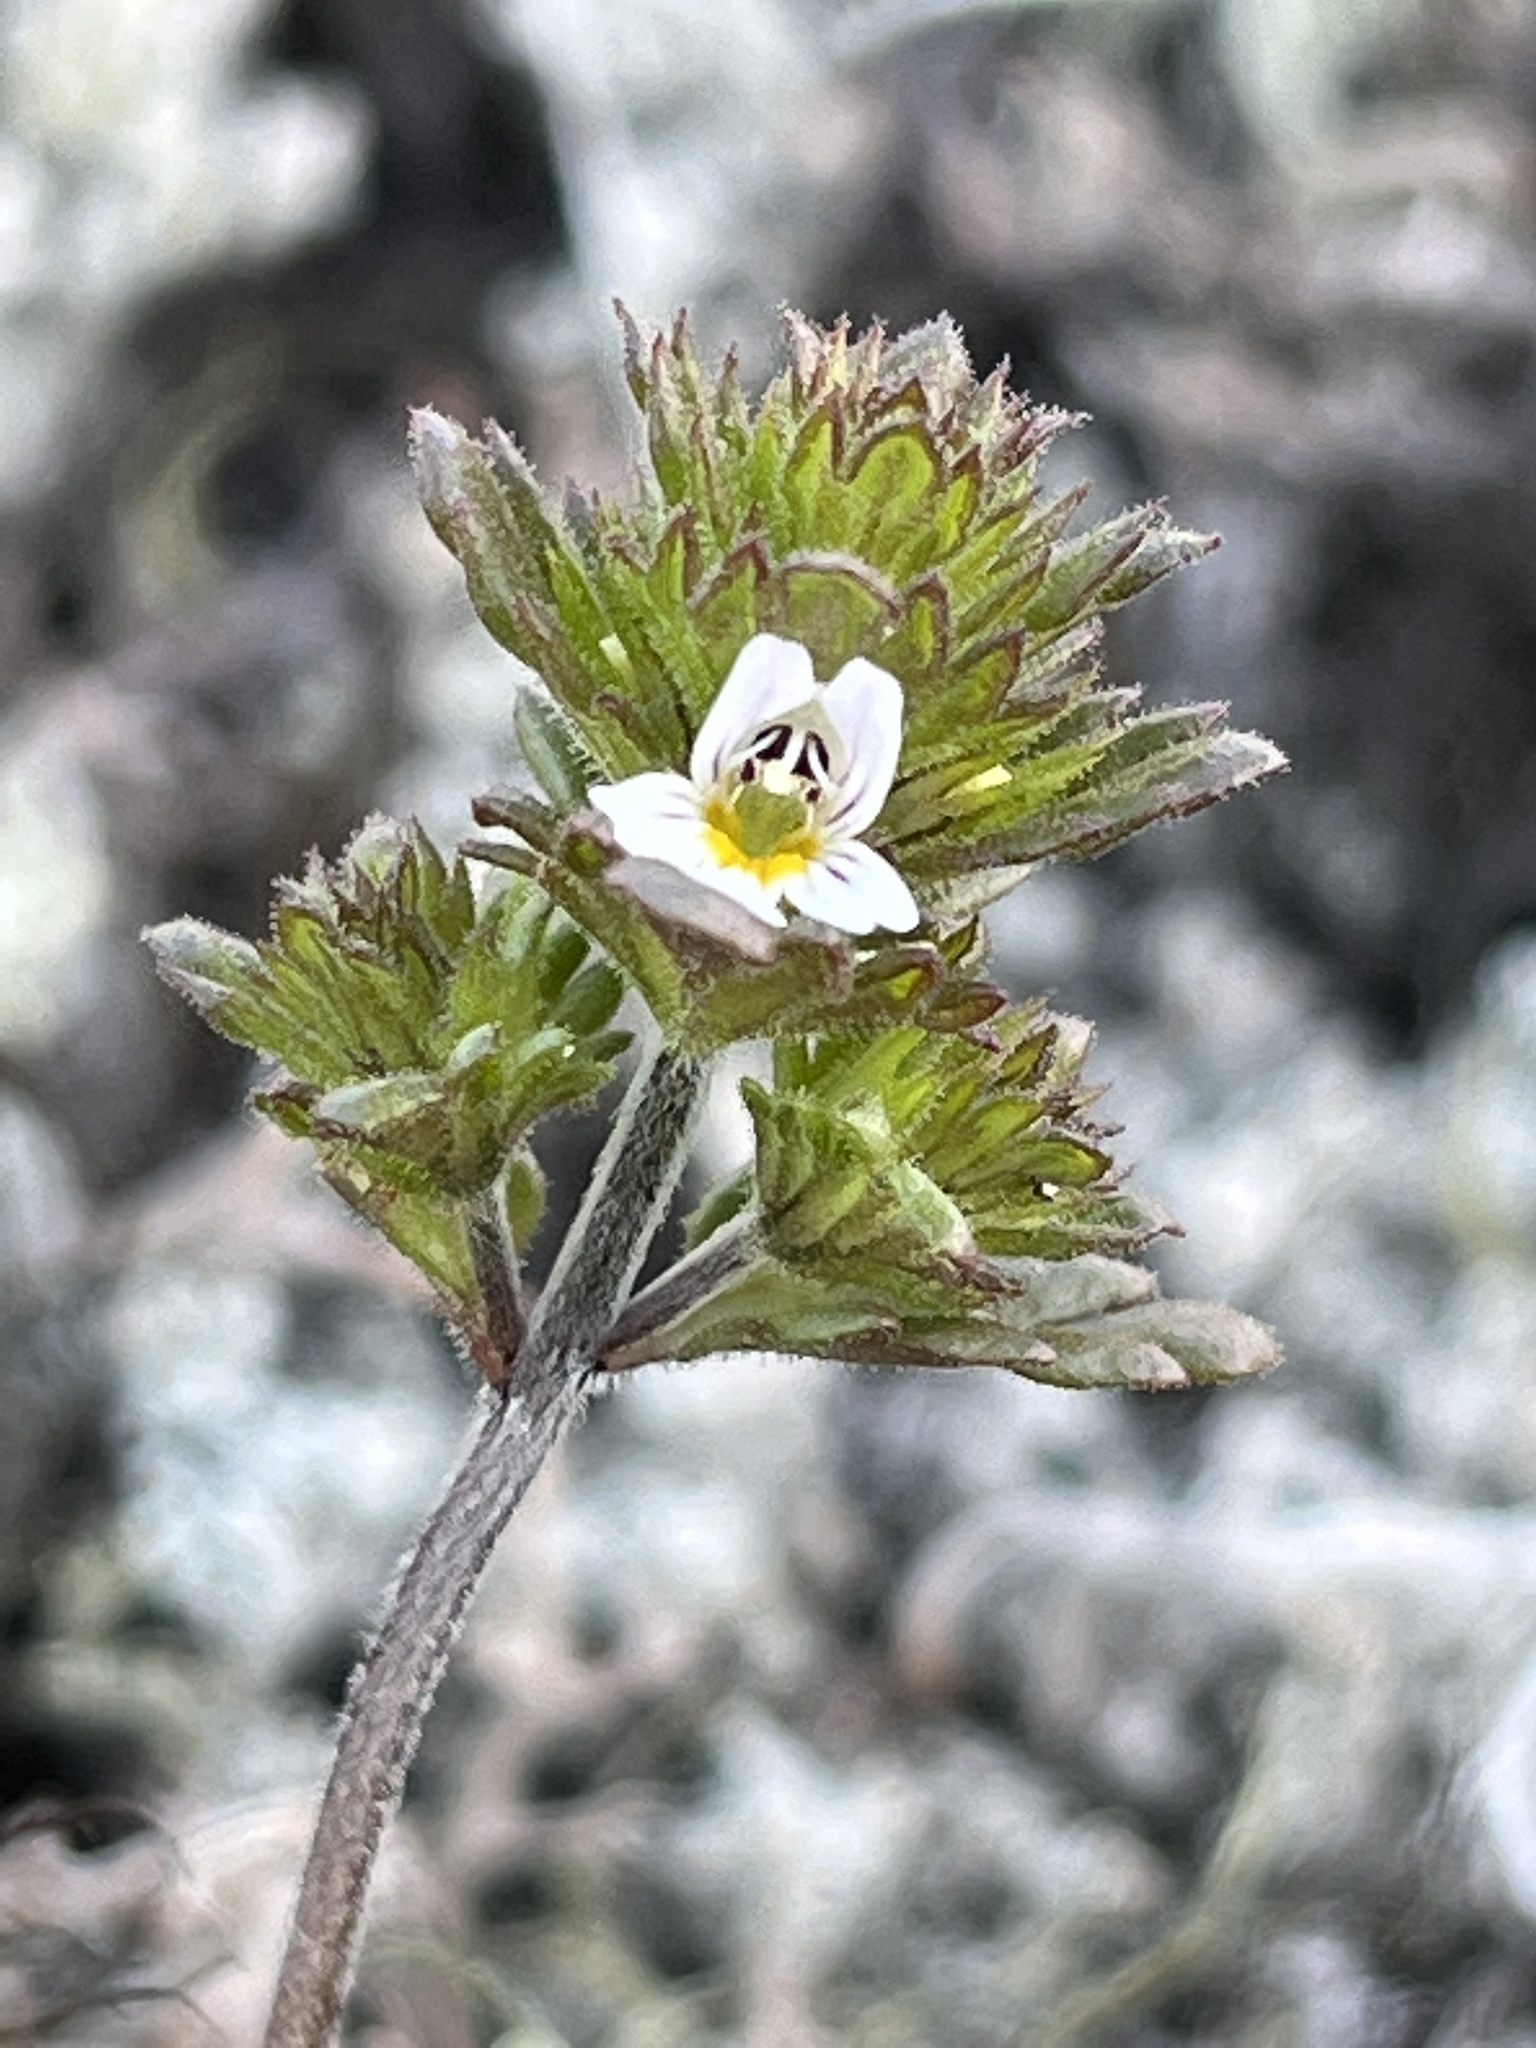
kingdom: Plantae
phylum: Tracheophyta
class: Magnoliopsida
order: Lamiales
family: Orobanchaceae
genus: Euphrasia
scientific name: Euphrasia frigida
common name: An eyebright
